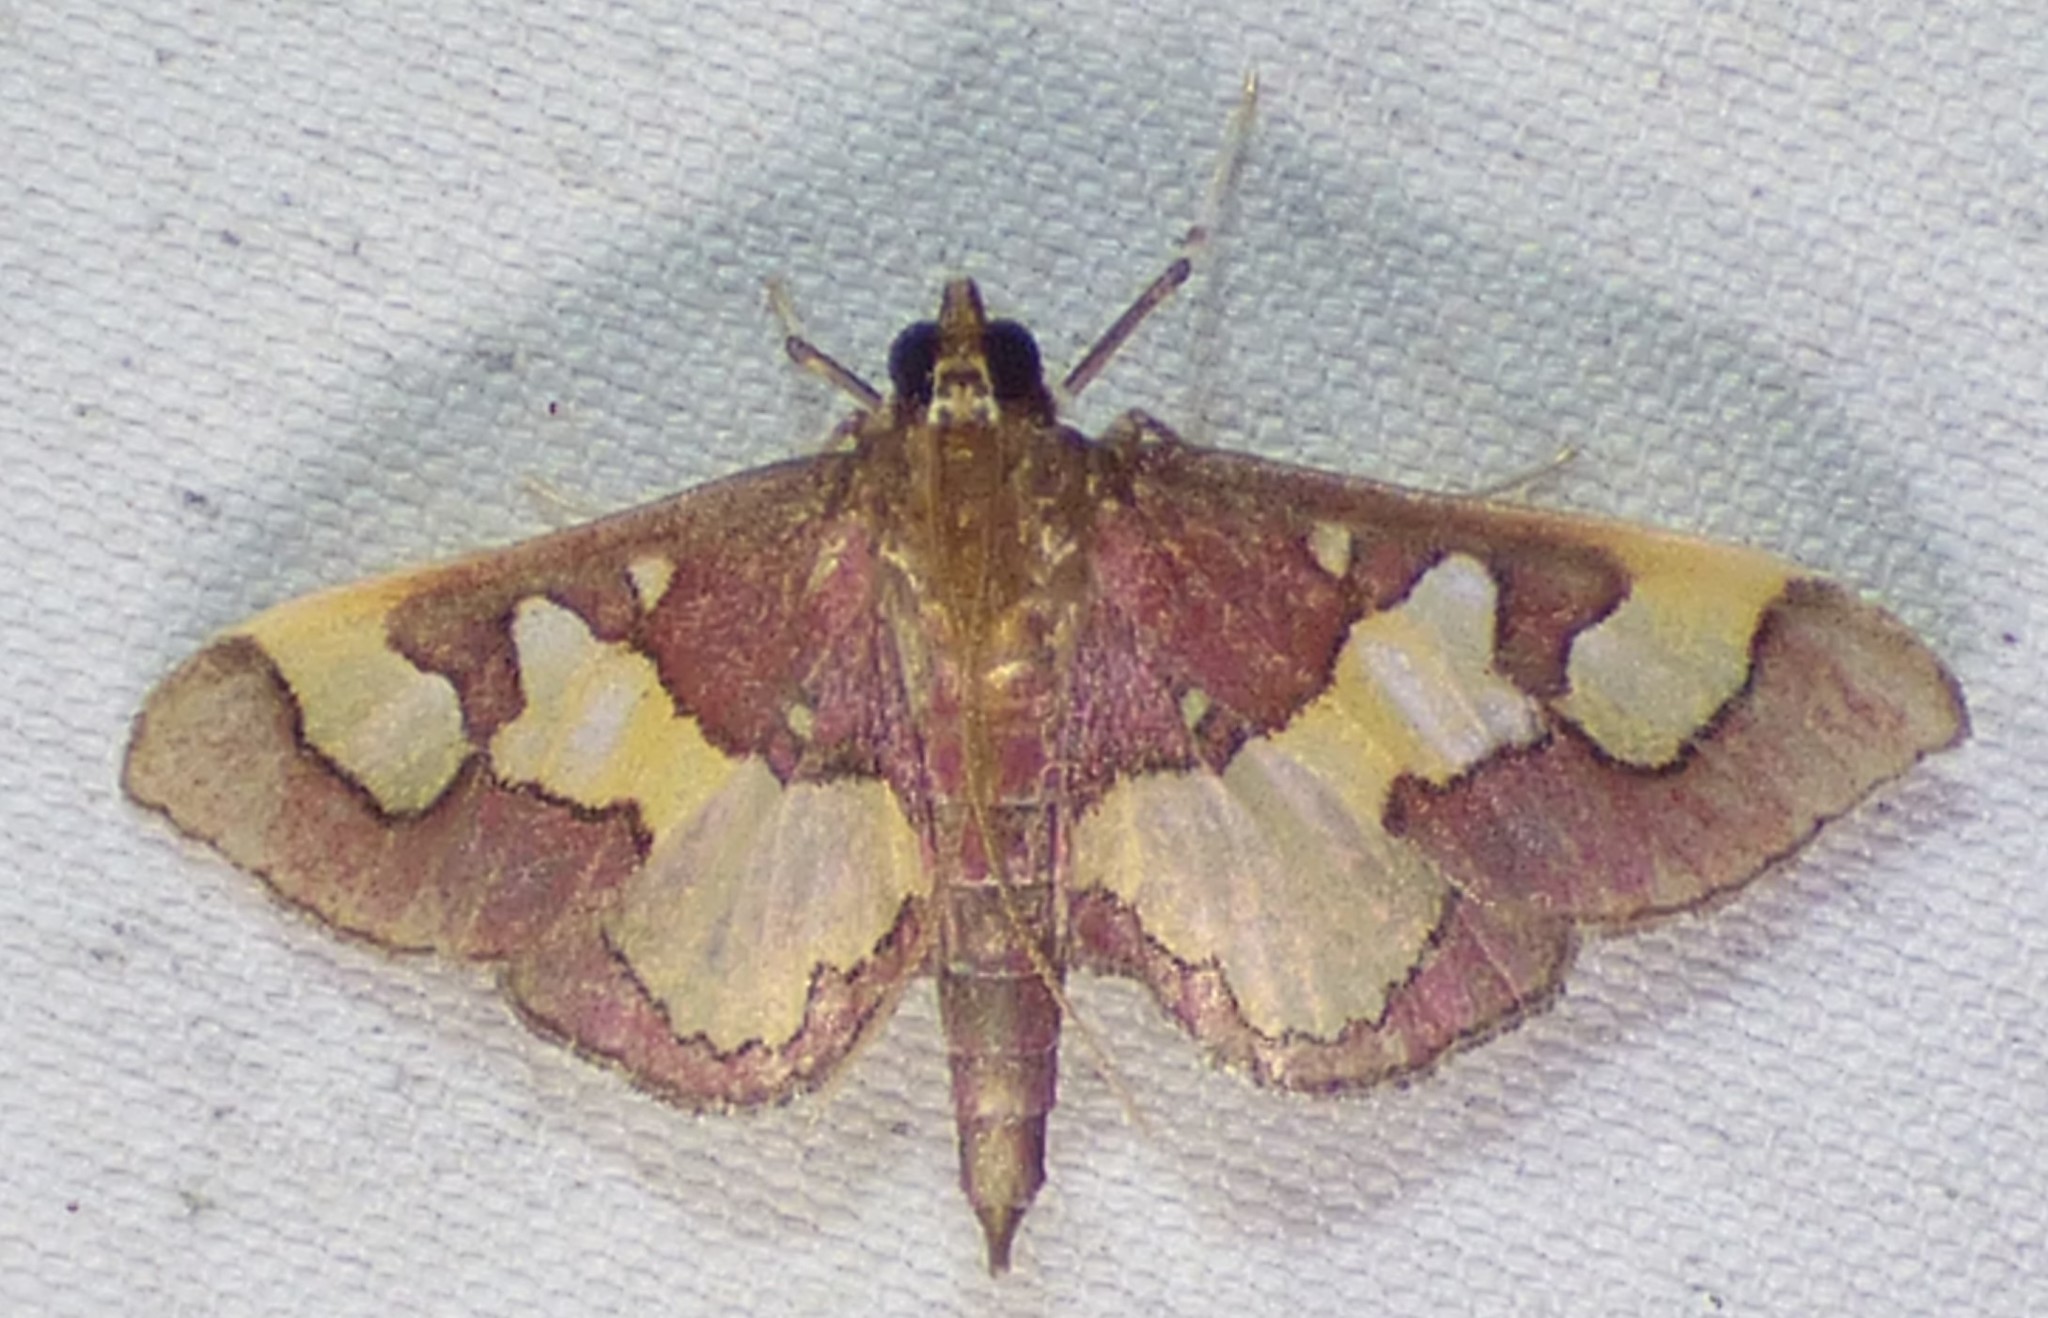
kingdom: Animalia
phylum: Arthropoda
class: Insecta
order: Lepidoptera
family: Crambidae
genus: Colomychus
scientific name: Colomychus talis
